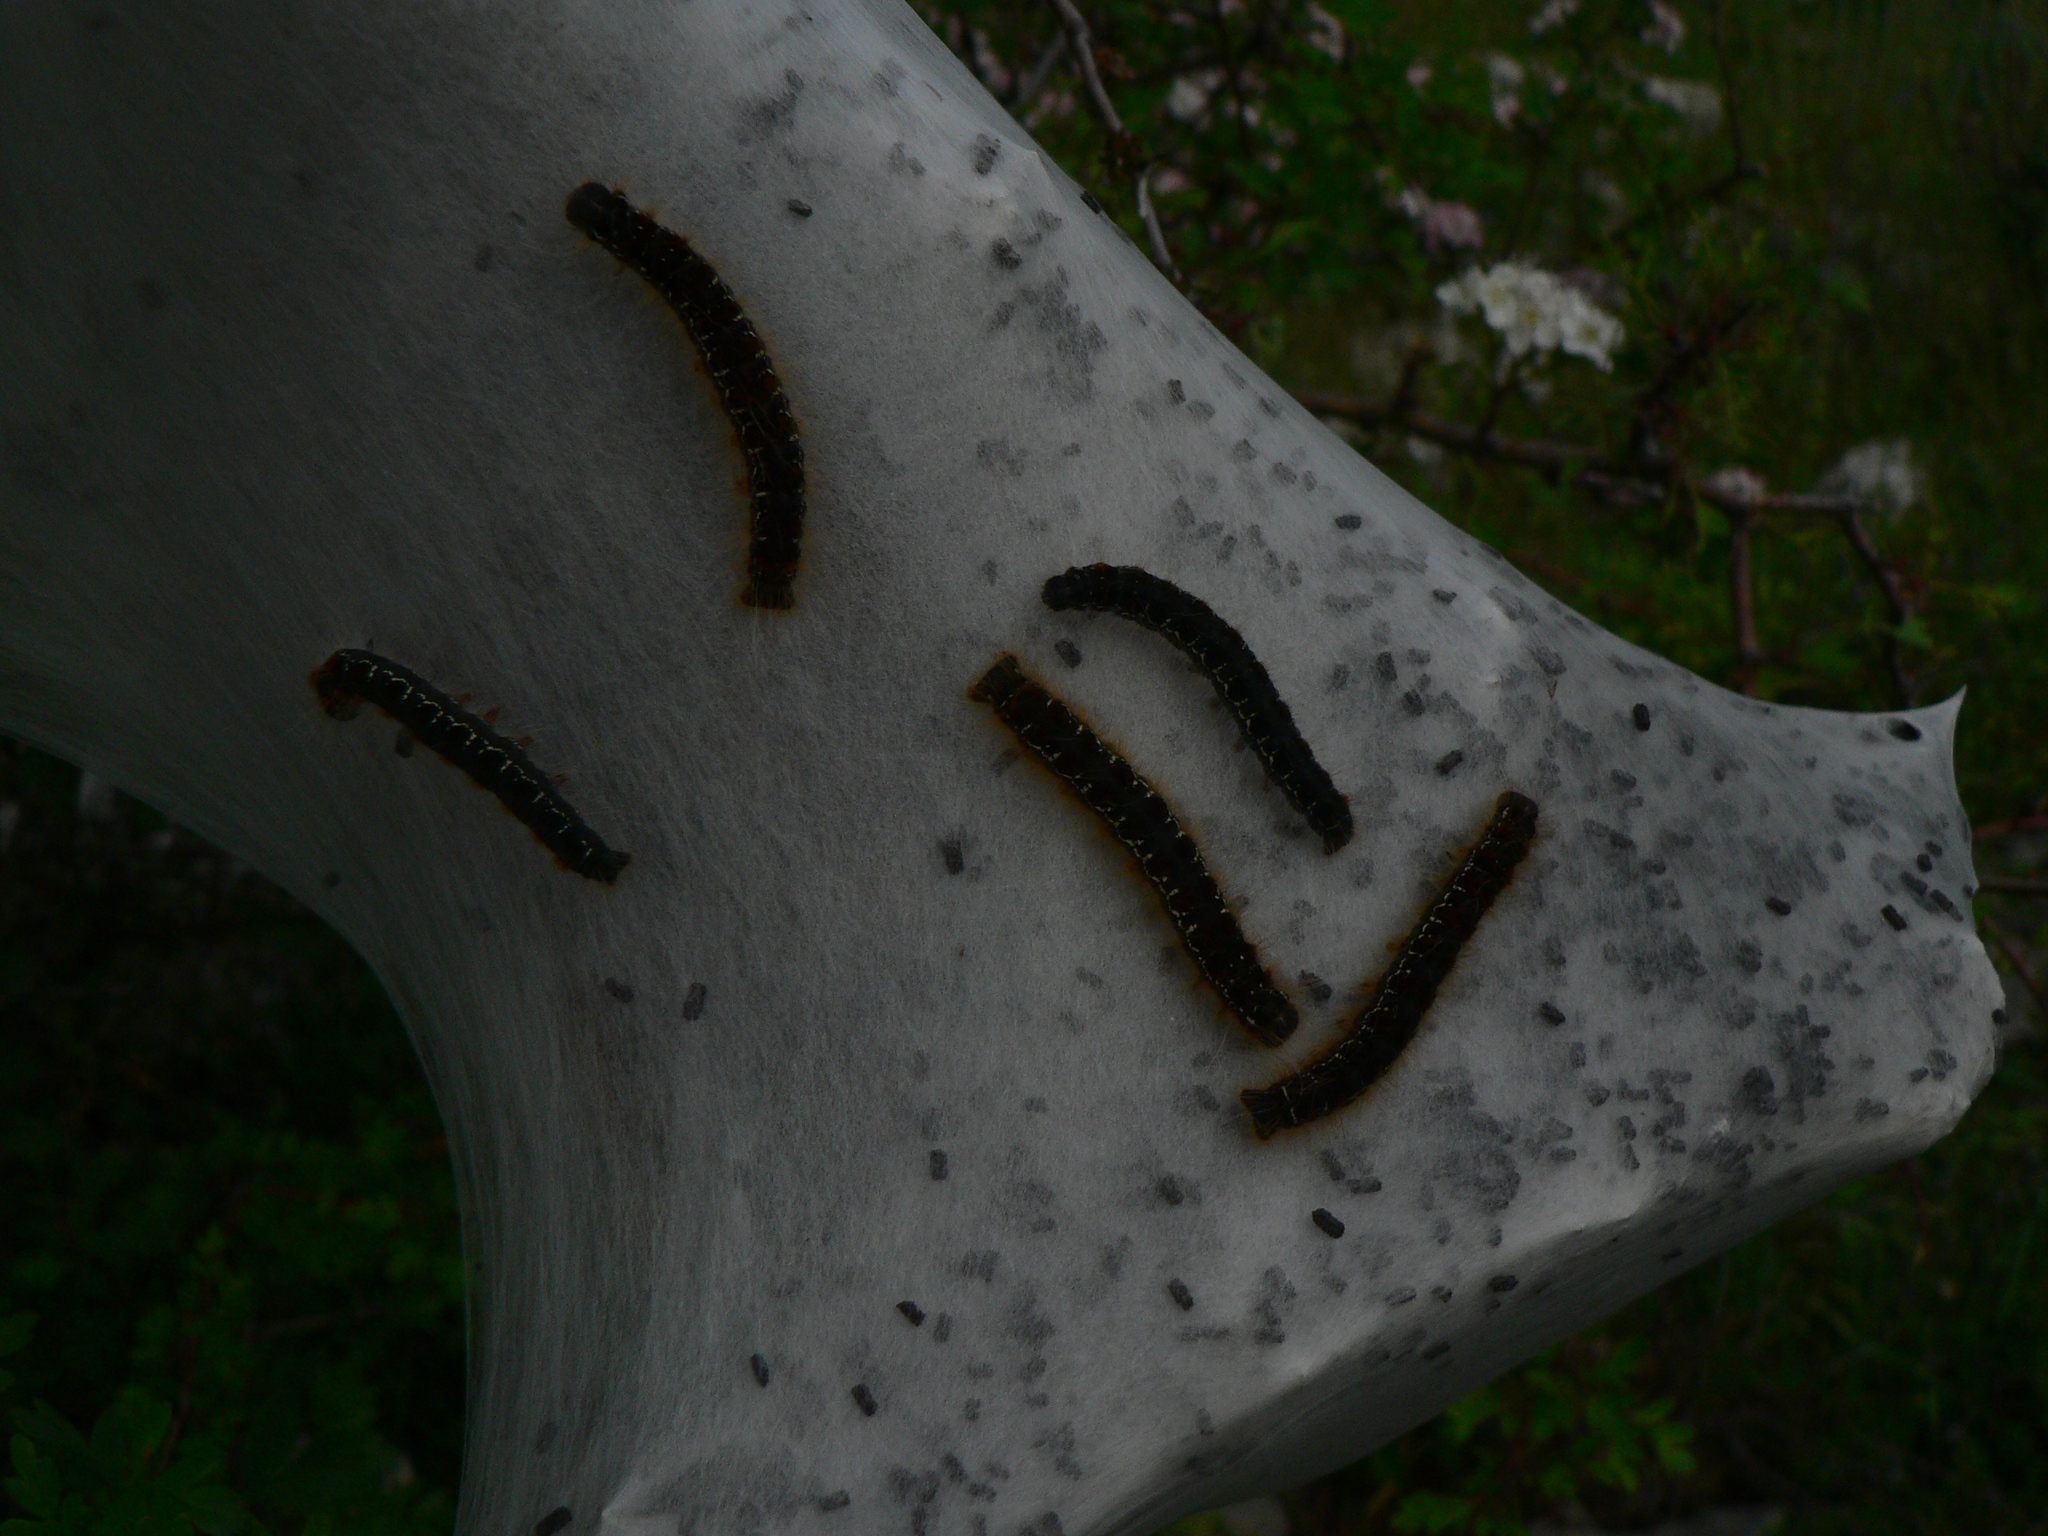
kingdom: Animalia
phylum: Arthropoda
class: Insecta
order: Lepidoptera
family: Lasiocampidae
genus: Eriogaster
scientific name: Eriogaster lanestris
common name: Small eggar
